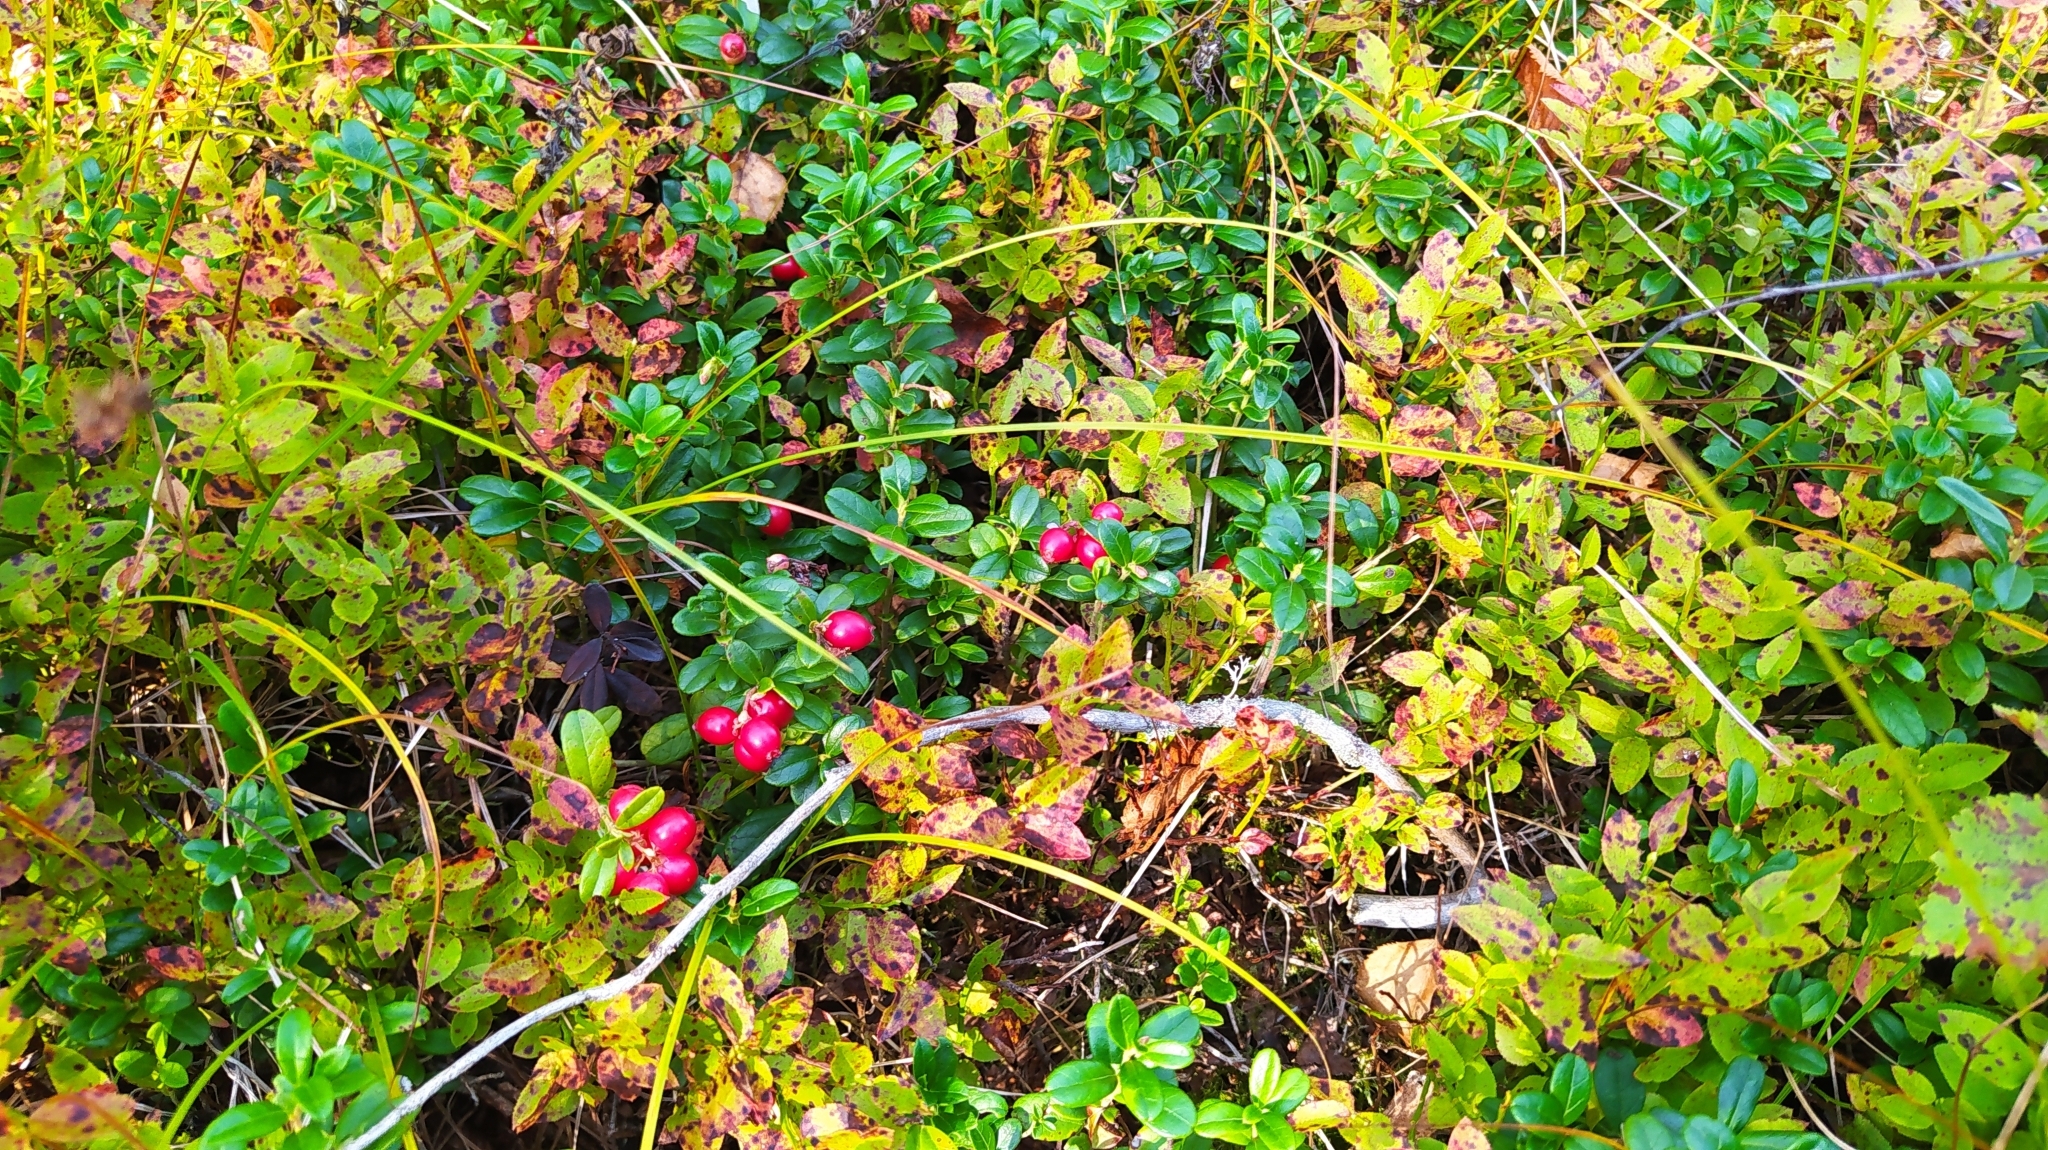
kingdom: Plantae
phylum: Tracheophyta
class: Magnoliopsida
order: Ericales
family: Ericaceae
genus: Vaccinium
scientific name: Vaccinium vitis-idaea
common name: Cowberry
